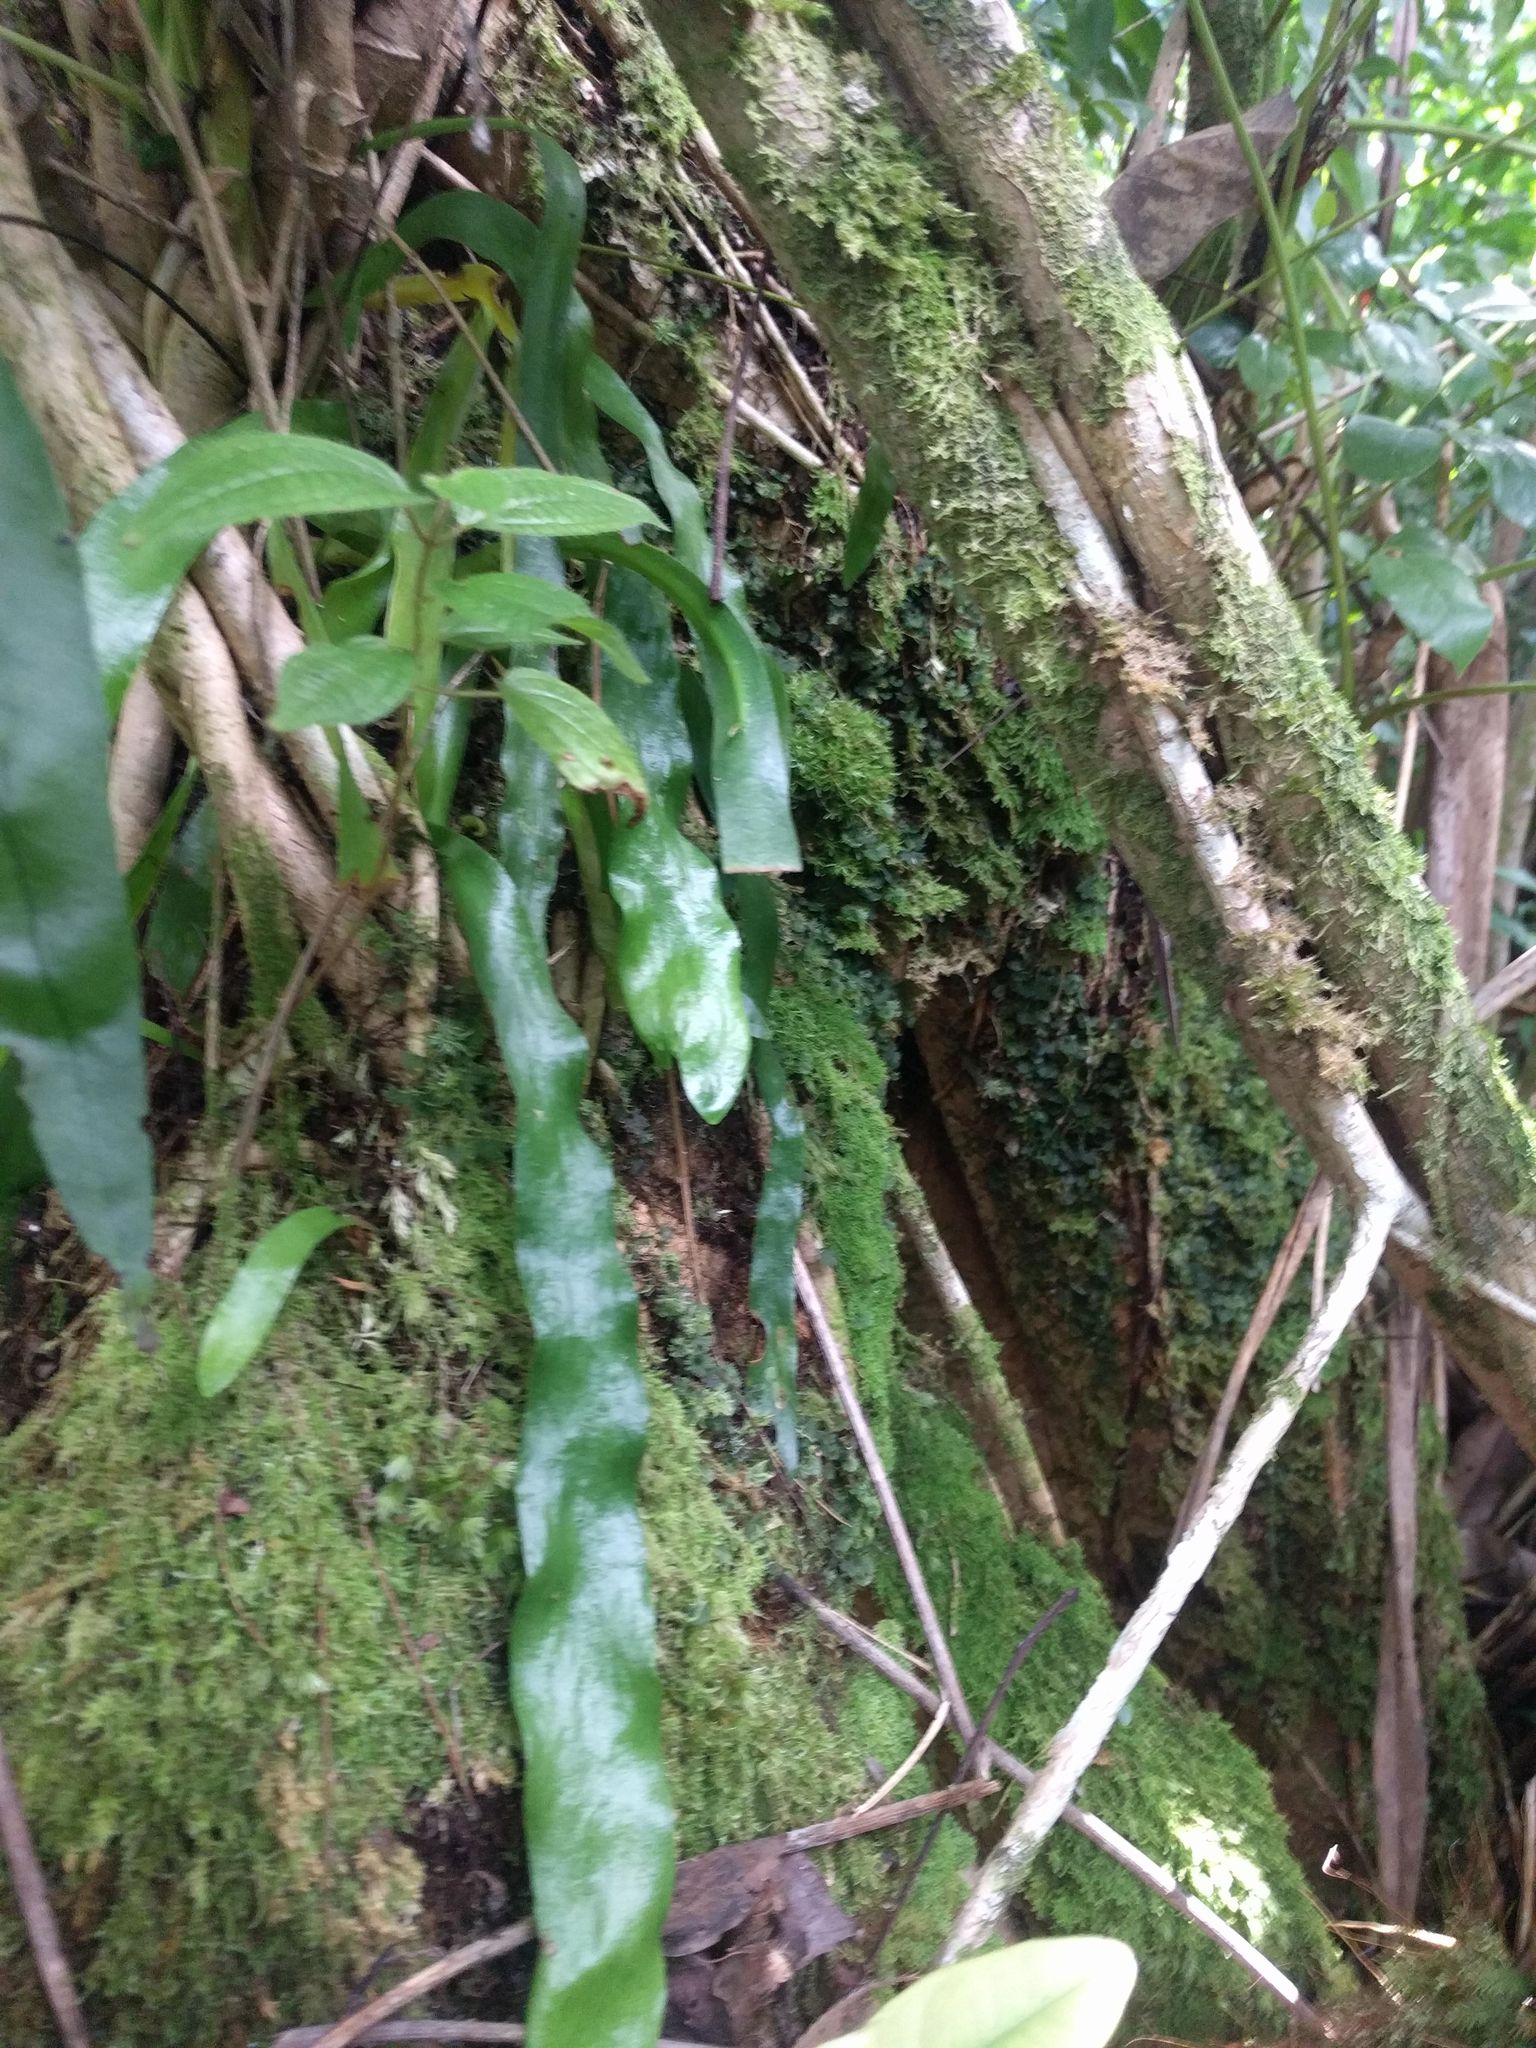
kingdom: Plantae
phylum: Tracheophyta
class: Polypodiopsida
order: Ophioglossales
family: Ophioglossaceae
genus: Ophioderma
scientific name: Ophioderma pendulum
